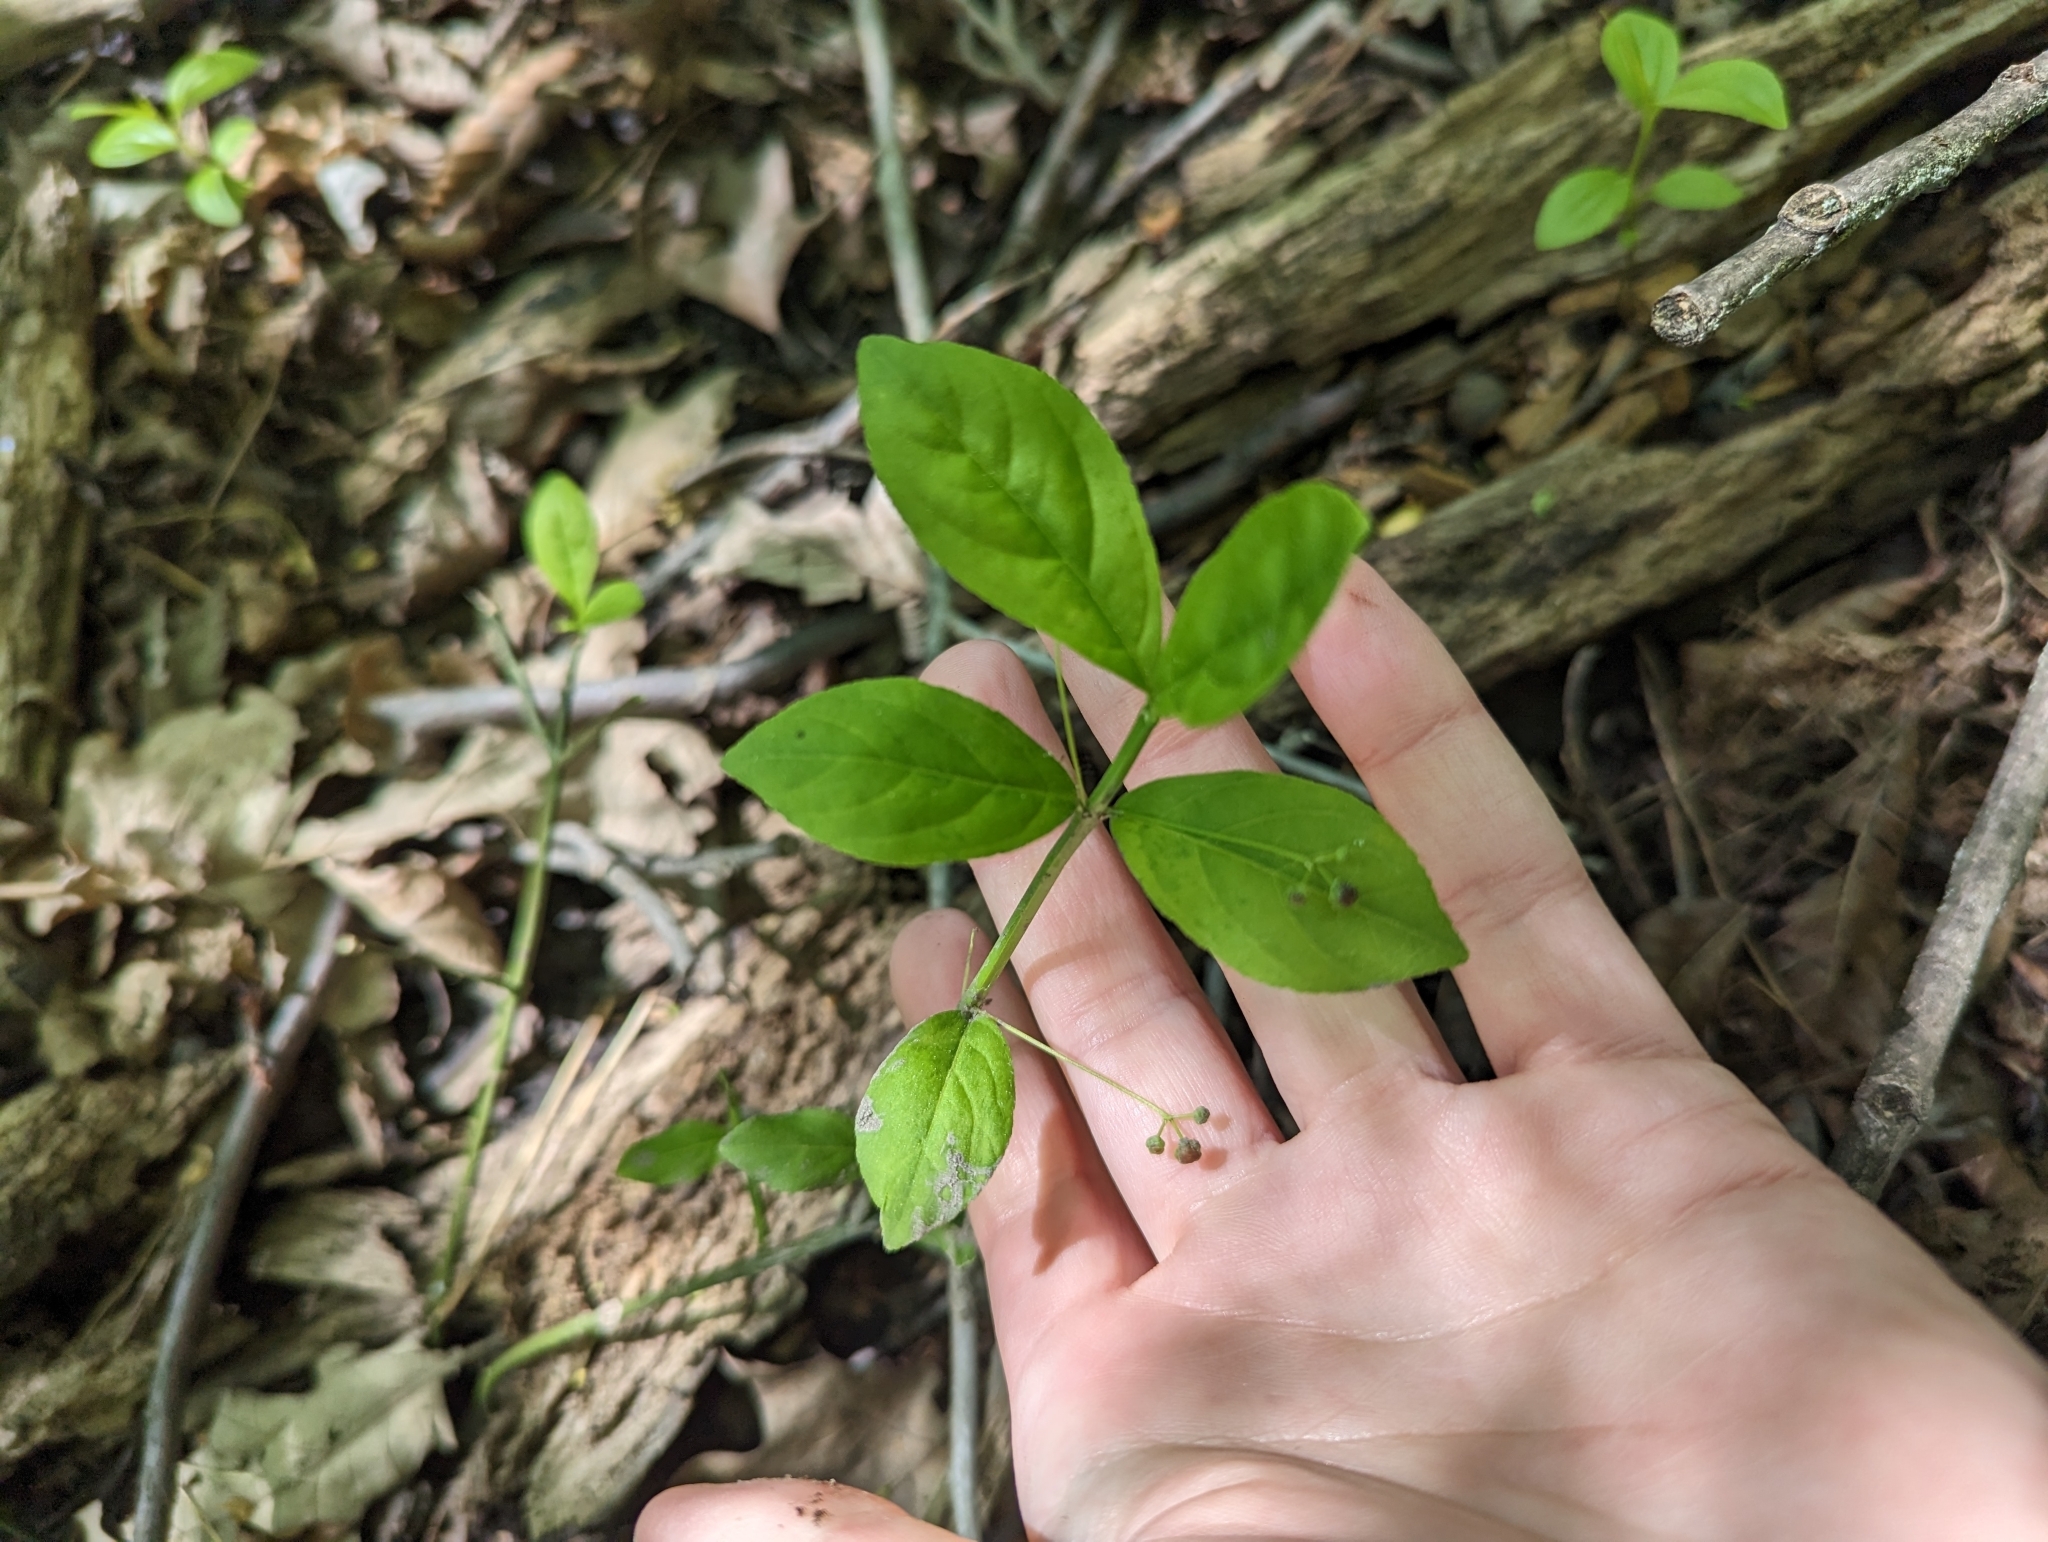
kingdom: Plantae
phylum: Tracheophyta
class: Magnoliopsida
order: Celastrales
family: Celastraceae
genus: Euonymus
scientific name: Euonymus obovatus
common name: Running strawberry-bush
